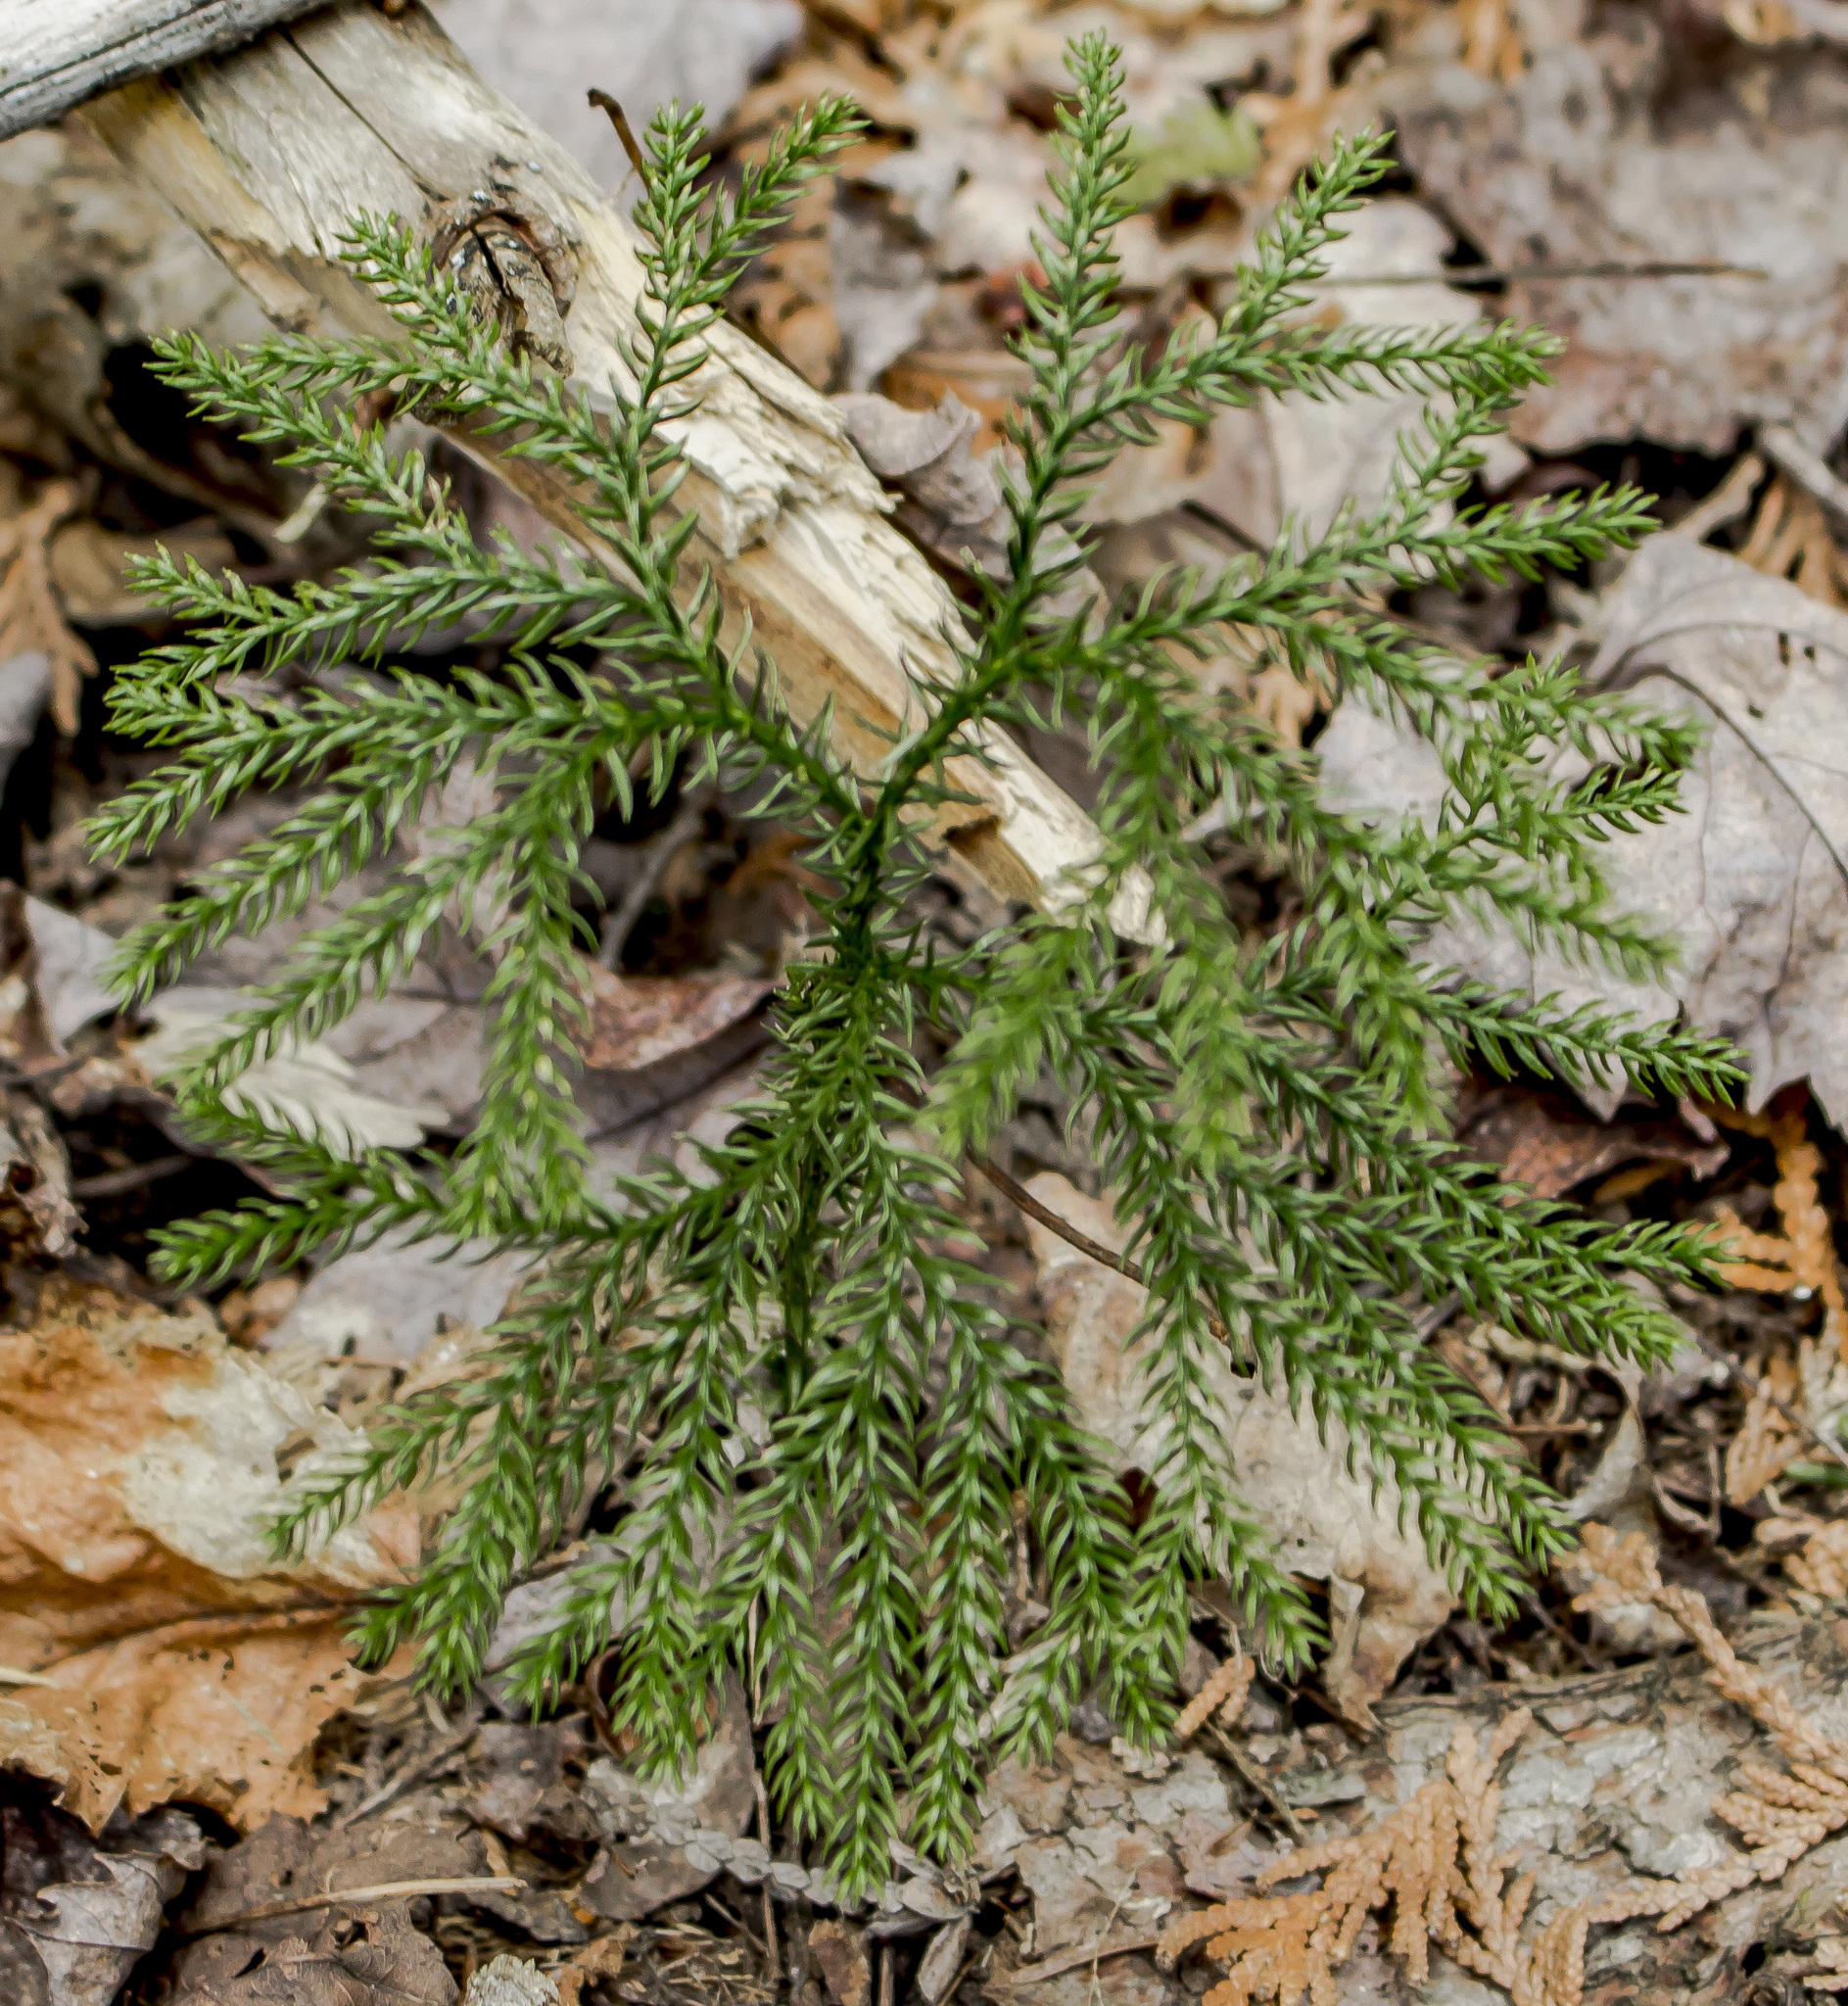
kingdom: Plantae
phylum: Tracheophyta
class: Lycopodiopsida
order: Lycopodiales
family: Lycopodiaceae
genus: Dendrolycopodium
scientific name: Dendrolycopodium dendroideum
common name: Northern tree-clubmoss
